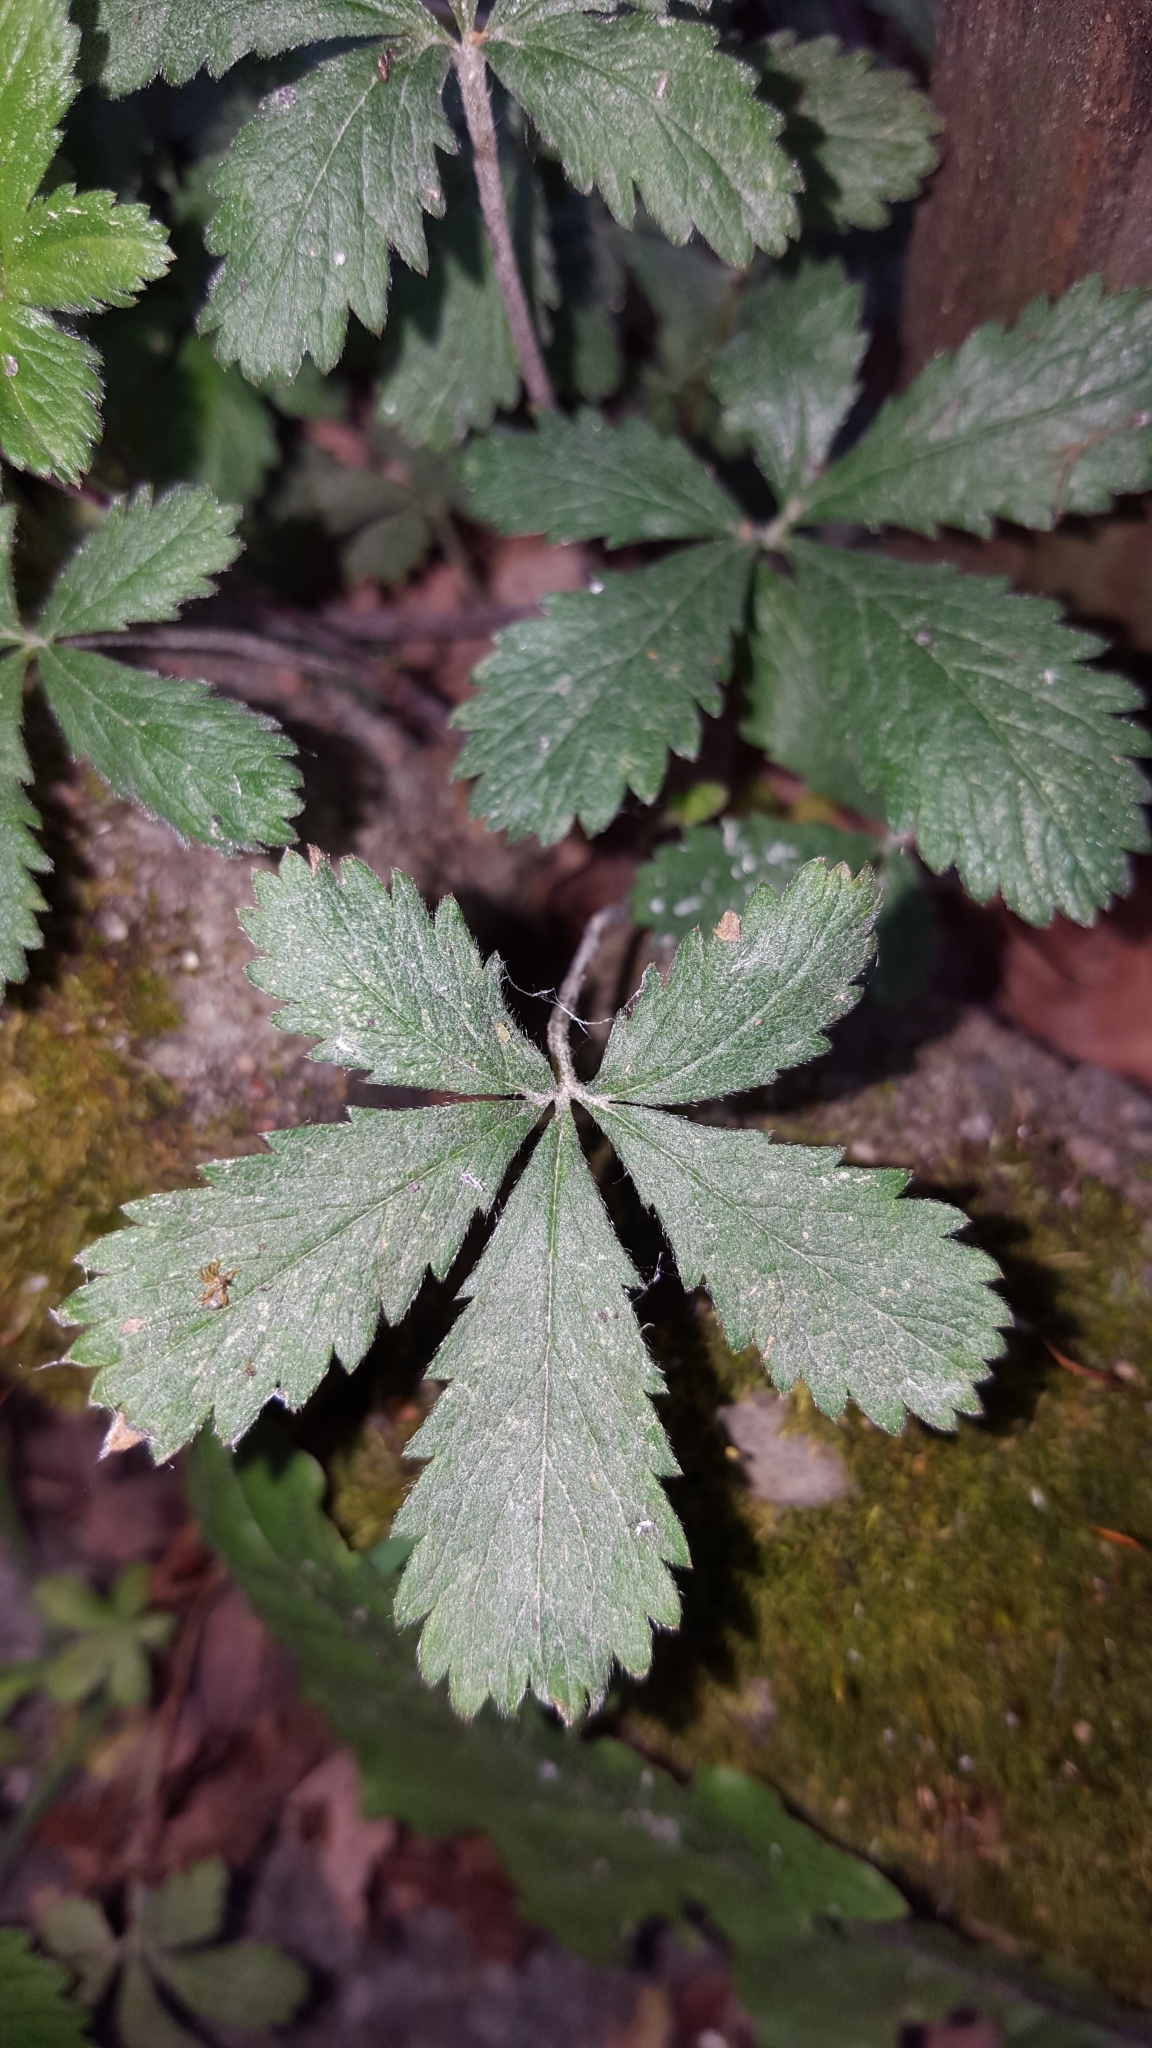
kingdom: Fungi
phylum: Ascomycota
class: Leotiomycetes
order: Helotiales
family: Erysiphaceae
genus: Podosphaera
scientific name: Podosphaera aphanis
